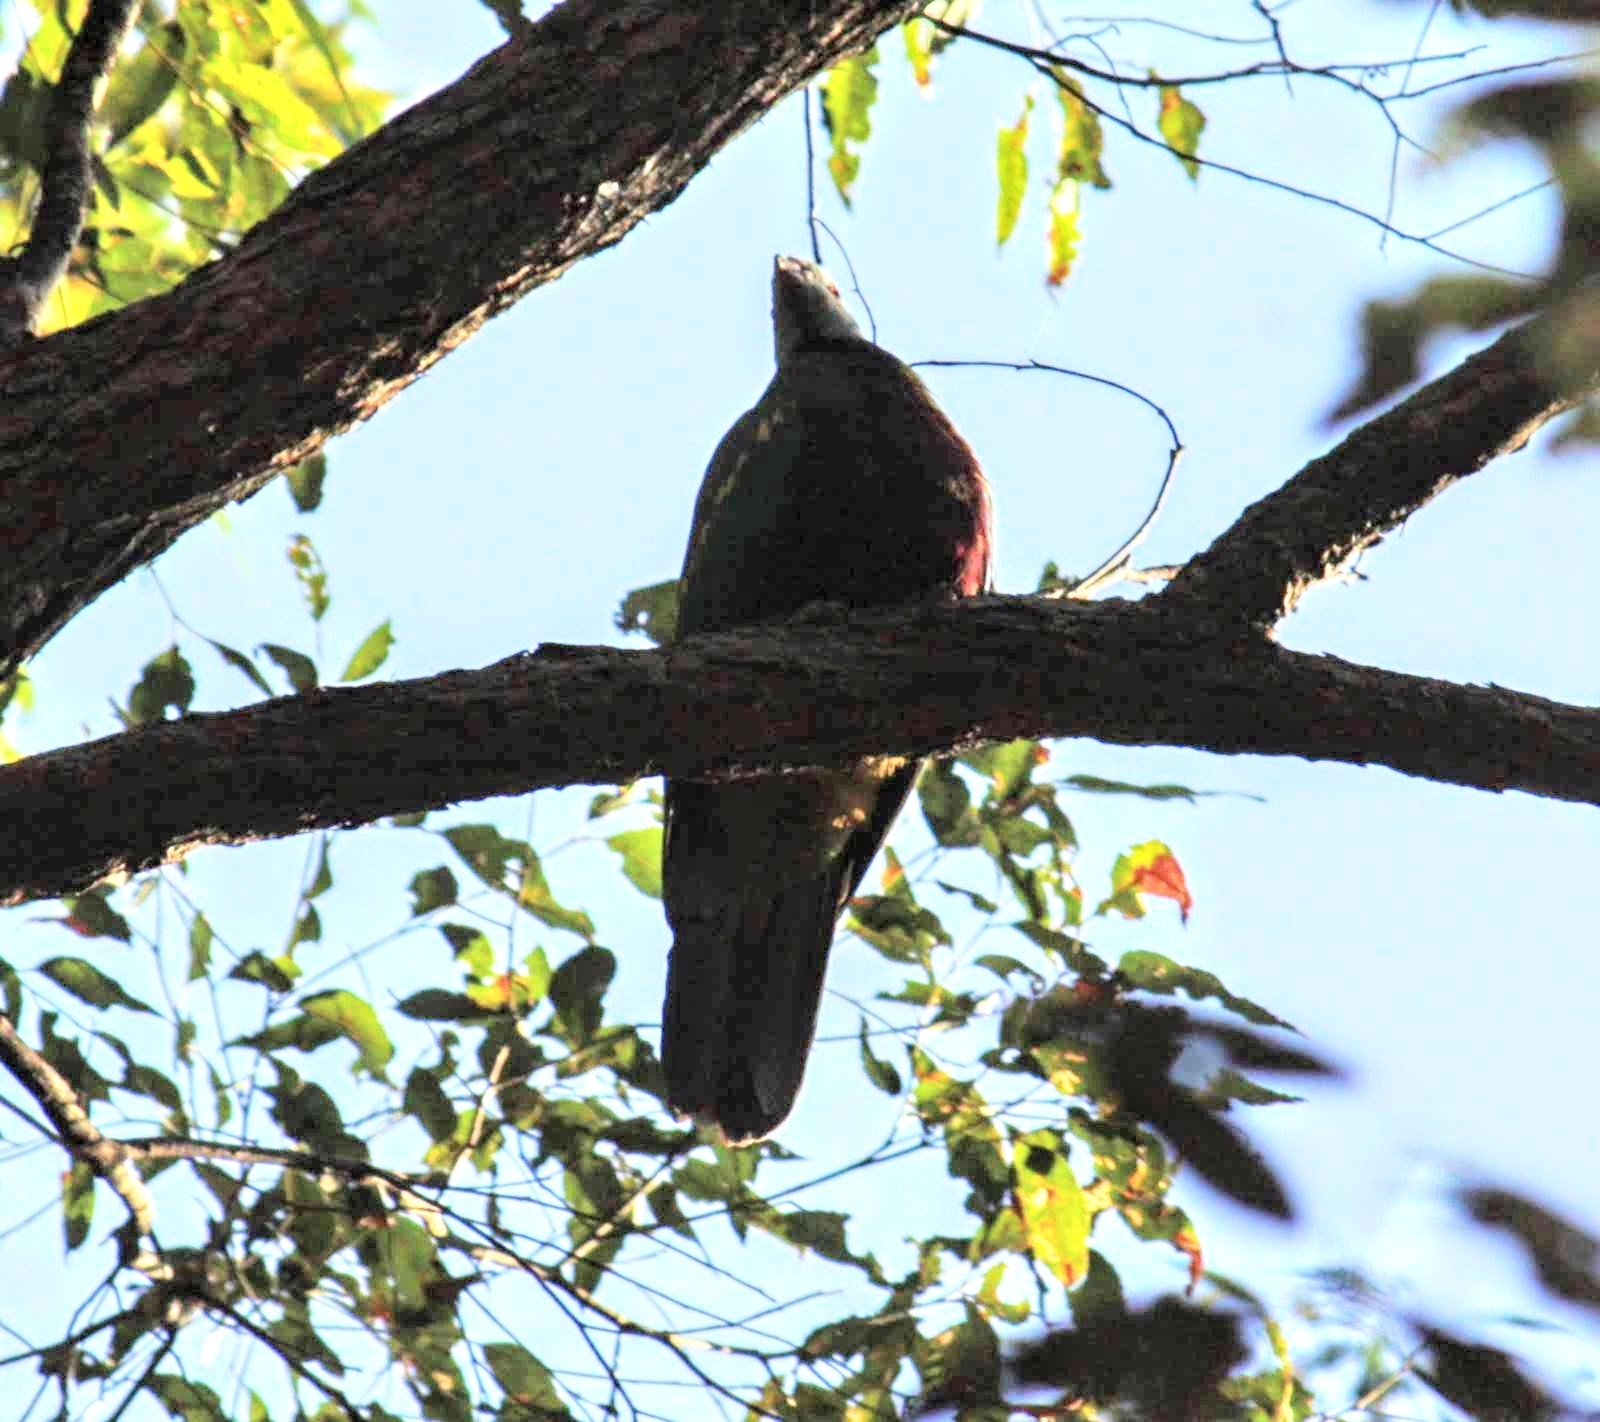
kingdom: Animalia
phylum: Chordata
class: Aves
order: Columbiformes
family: Columbidae
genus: Ptilinopus
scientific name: Ptilinopus magnificus
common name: Wompoo fruit dove
